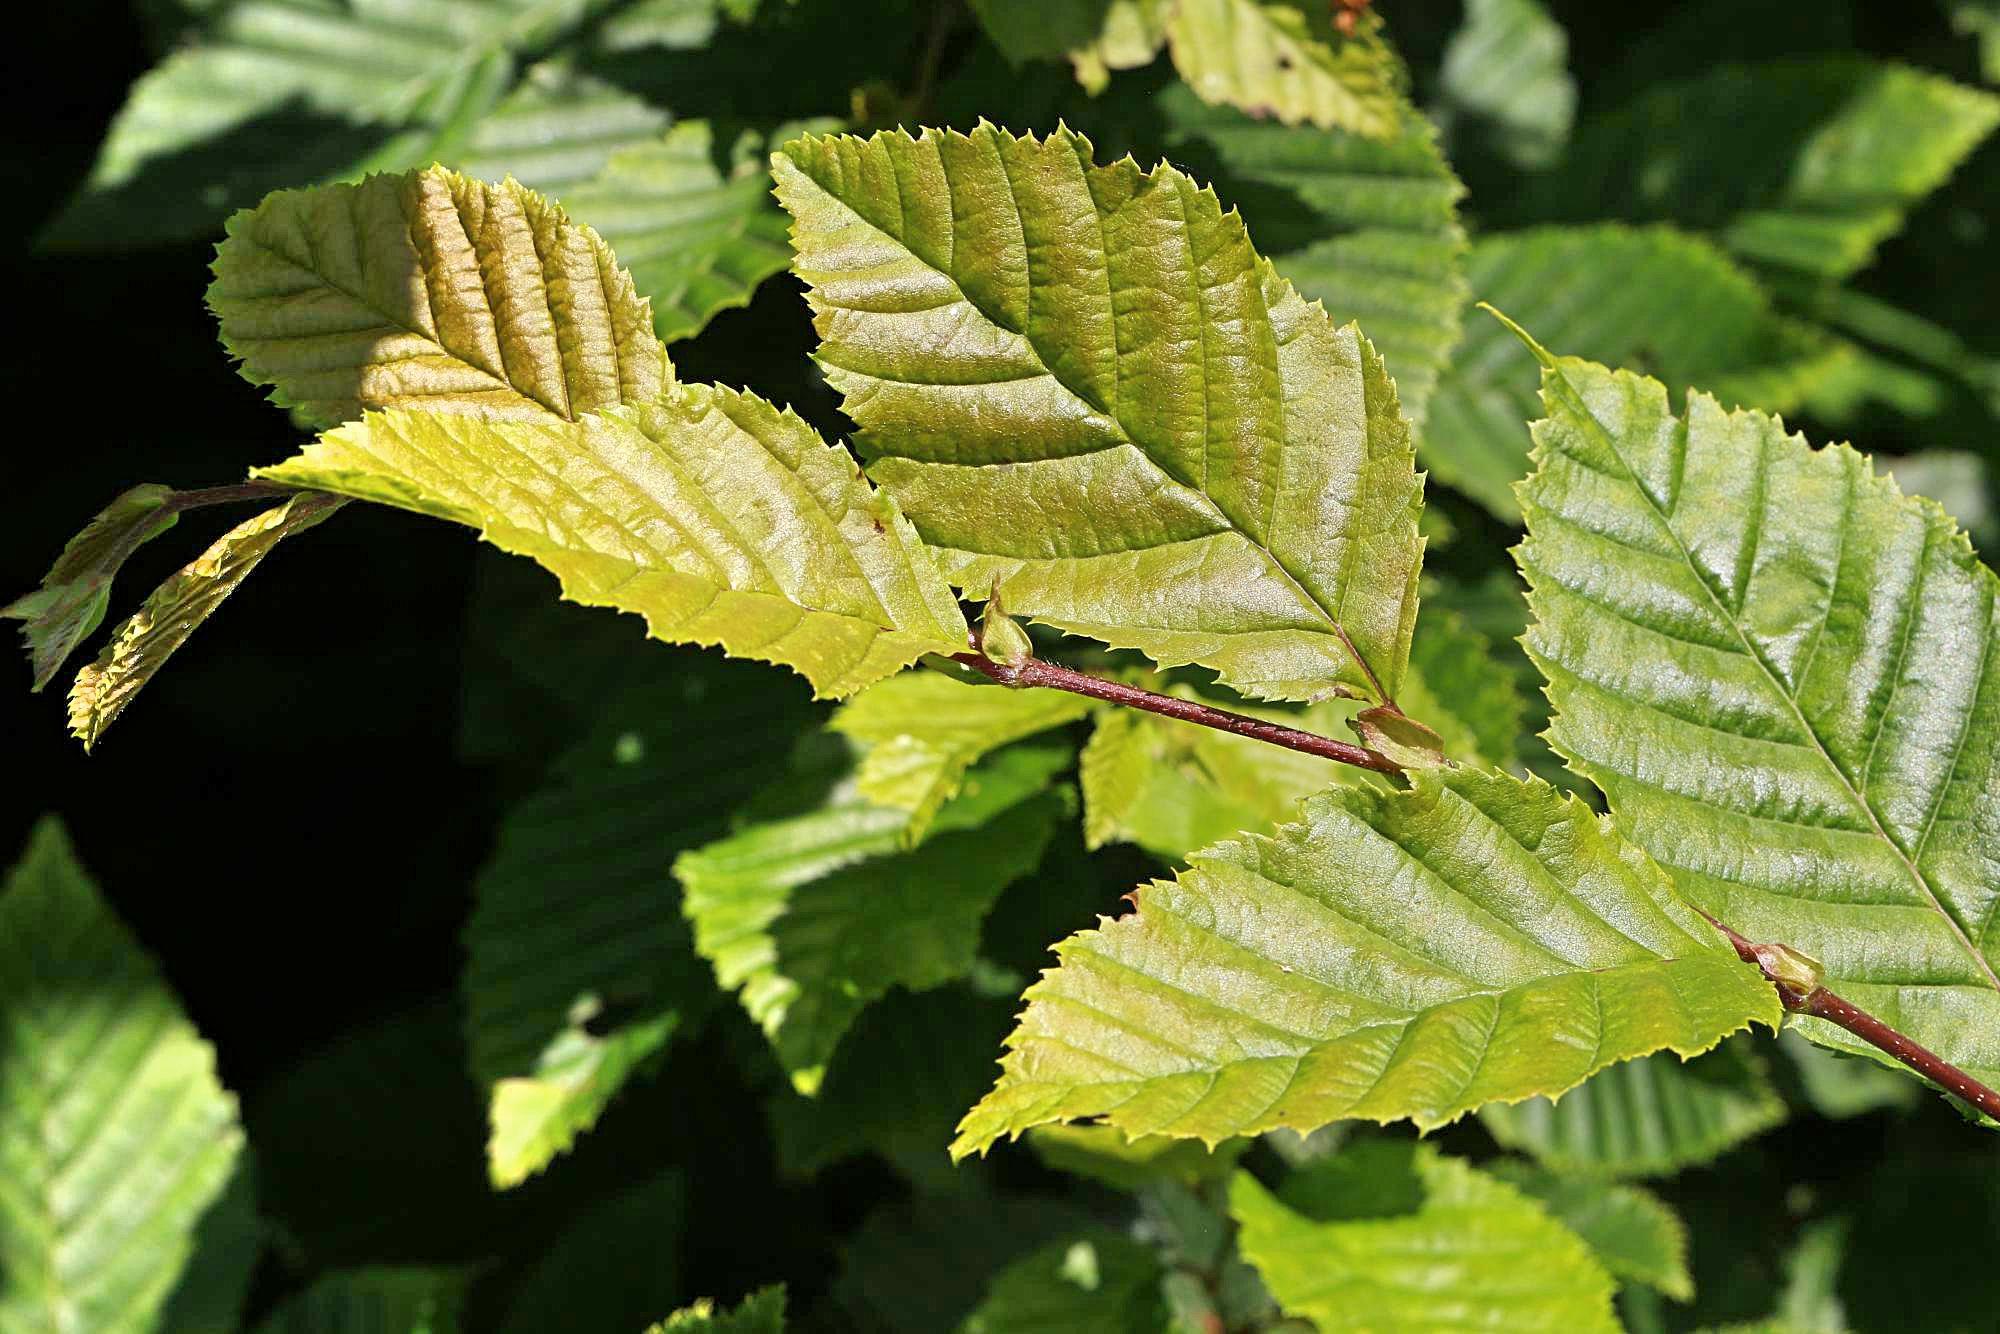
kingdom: Plantae
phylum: Tracheophyta
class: Magnoliopsida
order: Fagales
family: Betulaceae
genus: Carpinus
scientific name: Carpinus betulus
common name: Hornbeam
